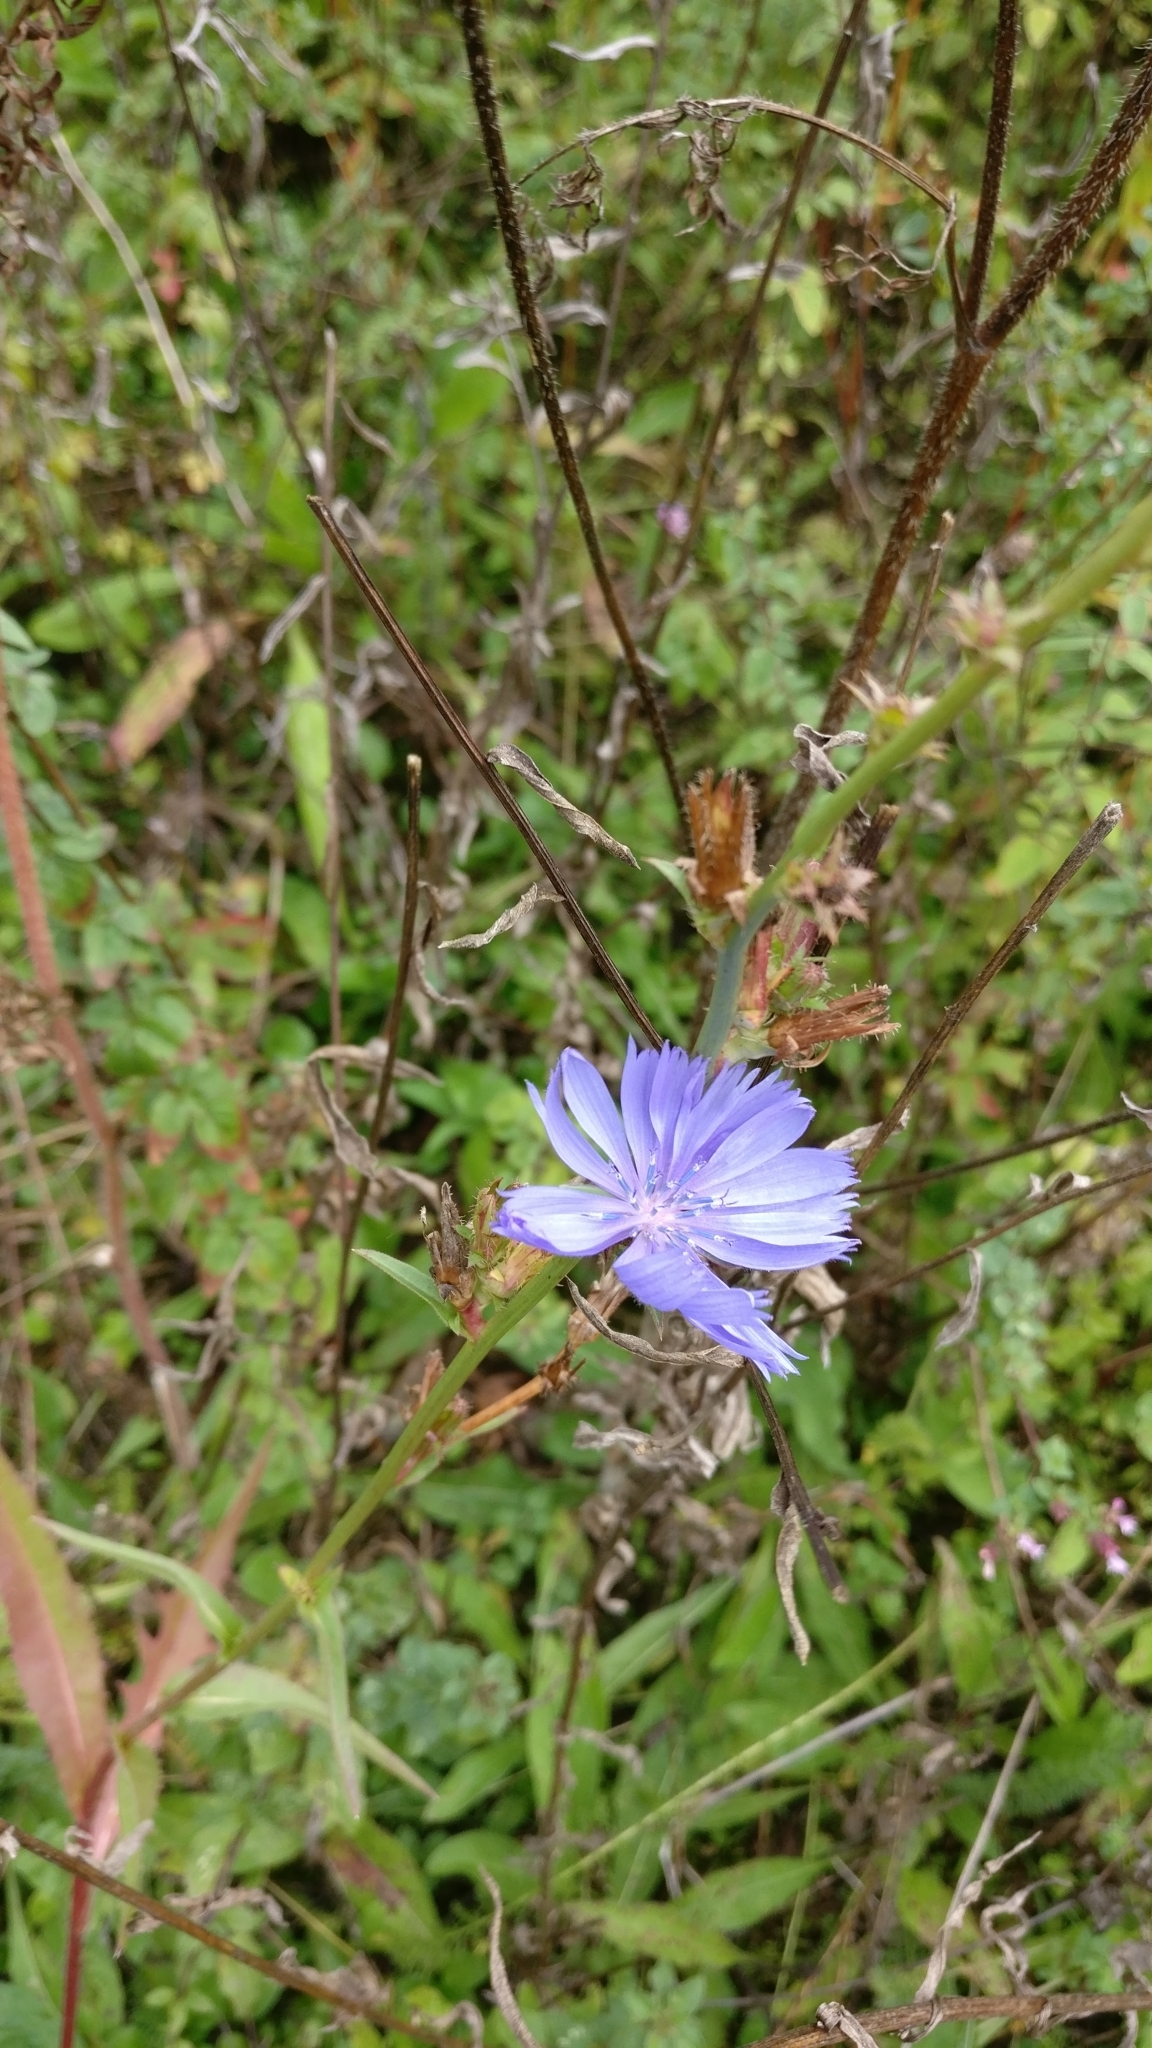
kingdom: Plantae
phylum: Tracheophyta
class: Magnoliopsida
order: Asterales
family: Asteraceae
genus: Cichorium
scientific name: Cichorium intybus
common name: Chicory
